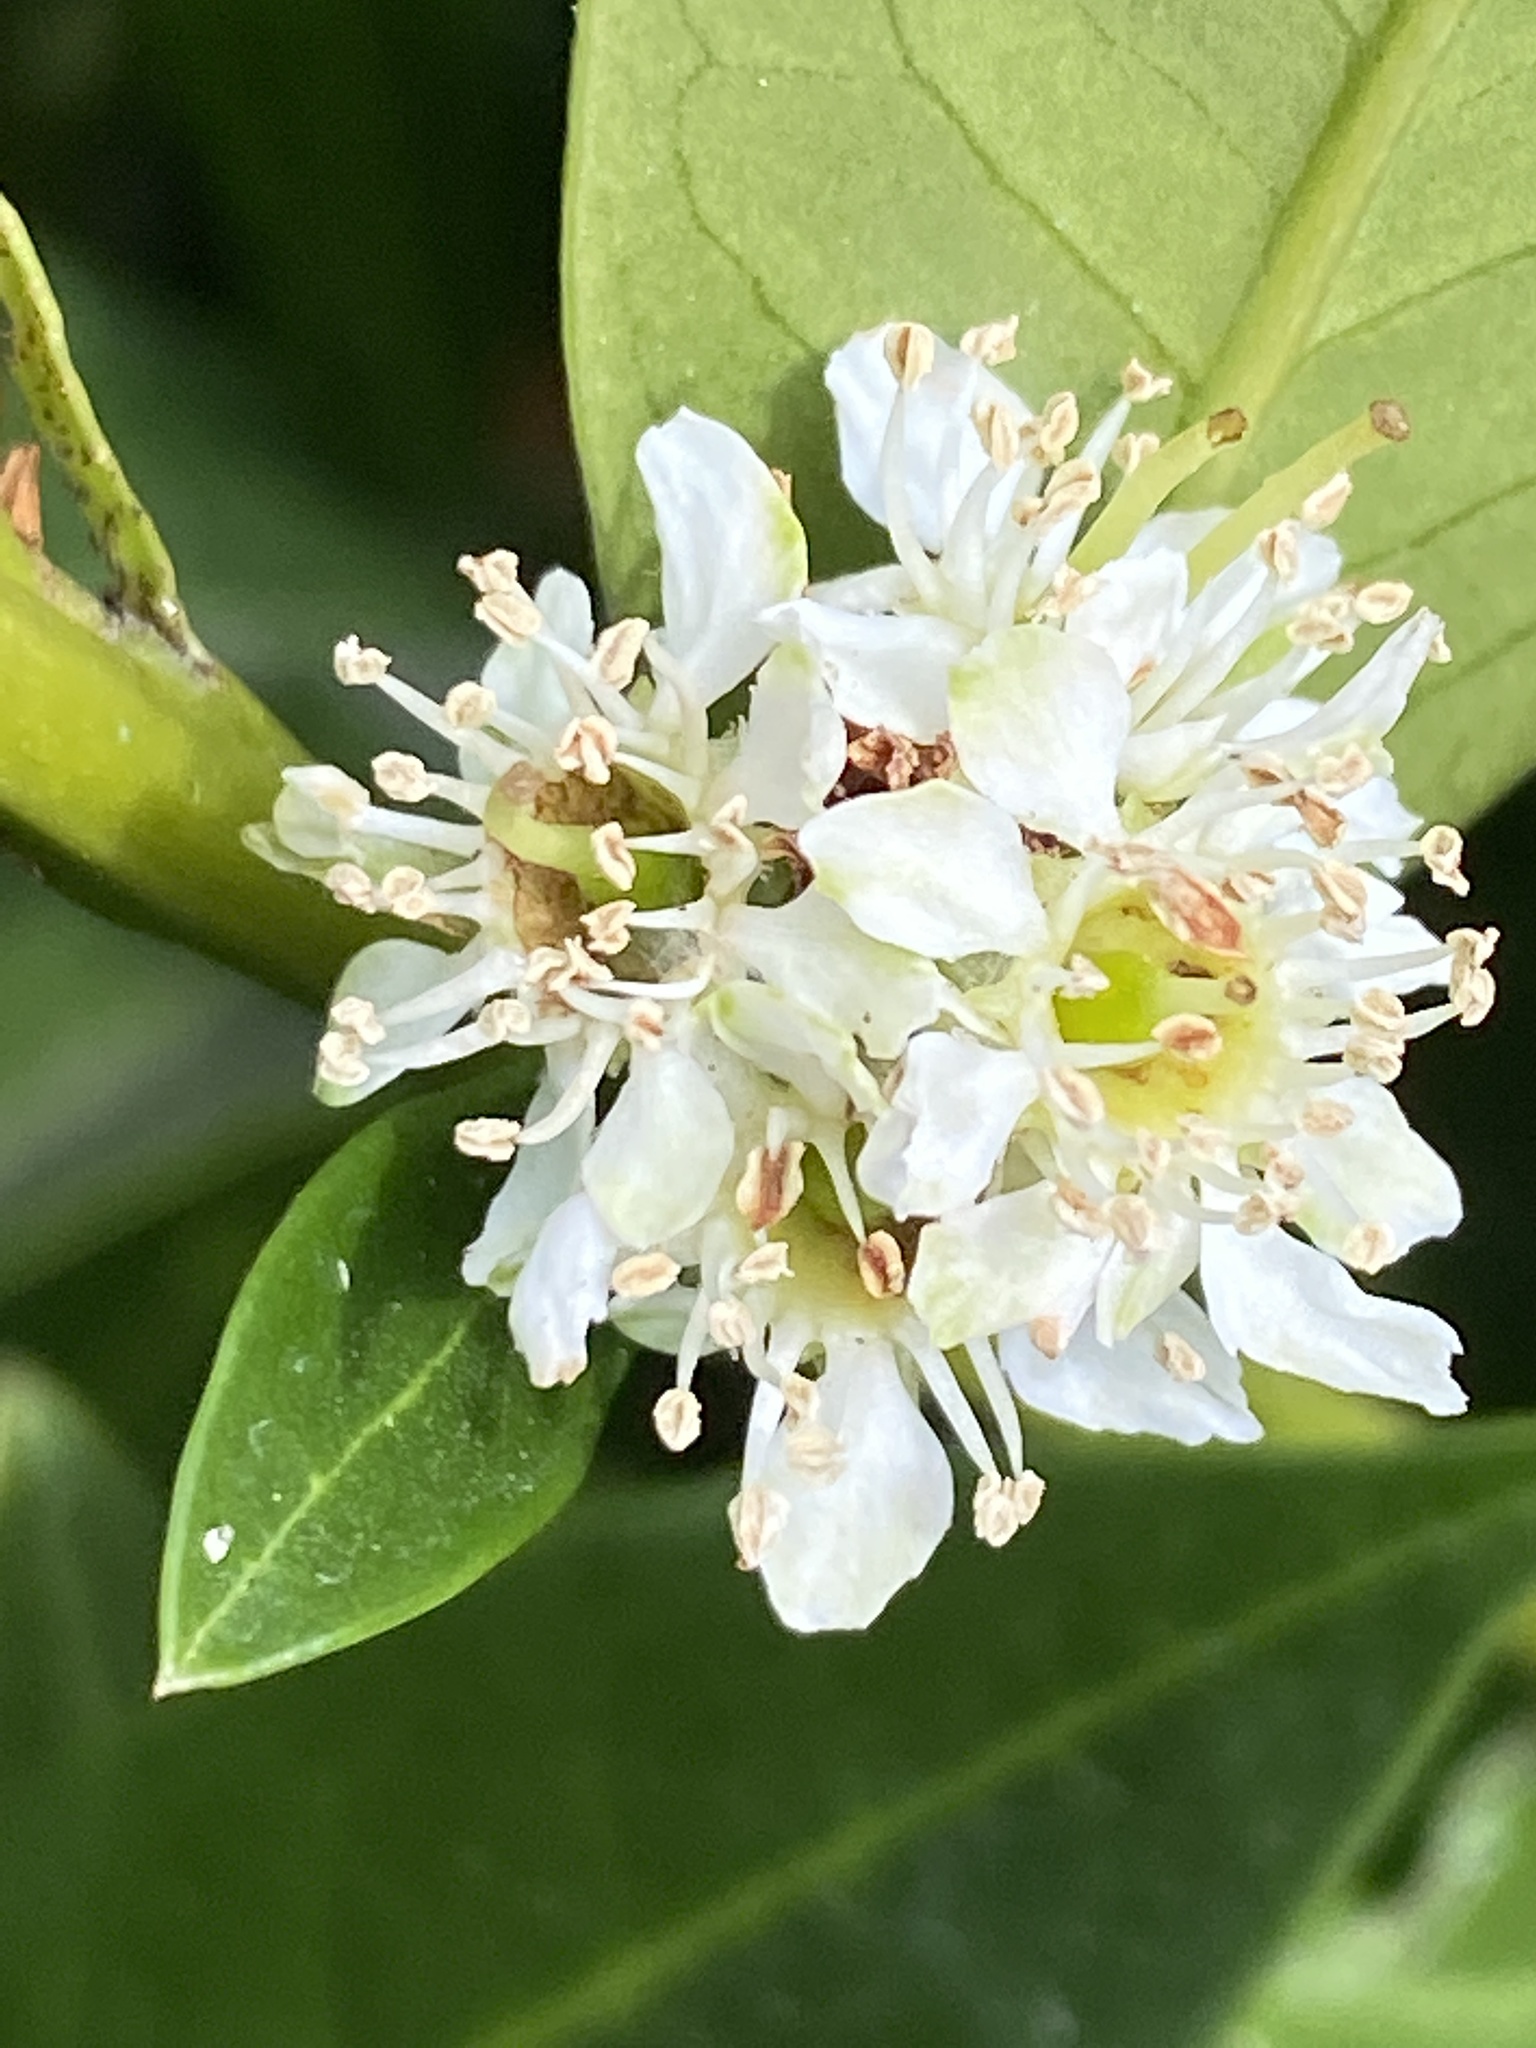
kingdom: Plantae
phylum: Tracheophyta
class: Magnoliopsida
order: Rosales
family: Rosaceae
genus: Prunus
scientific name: Prunus laurocerasus
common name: Cherry laurel
